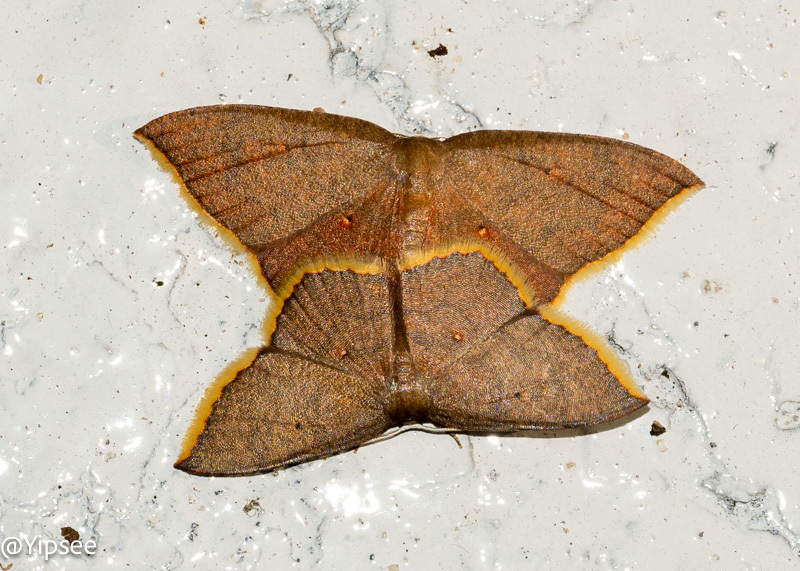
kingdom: Animalia
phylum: Arthropoda
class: Insecta
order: Lepidoptera
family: Uraniidae
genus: Pseudhyria
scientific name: Pseudhyria rubra
